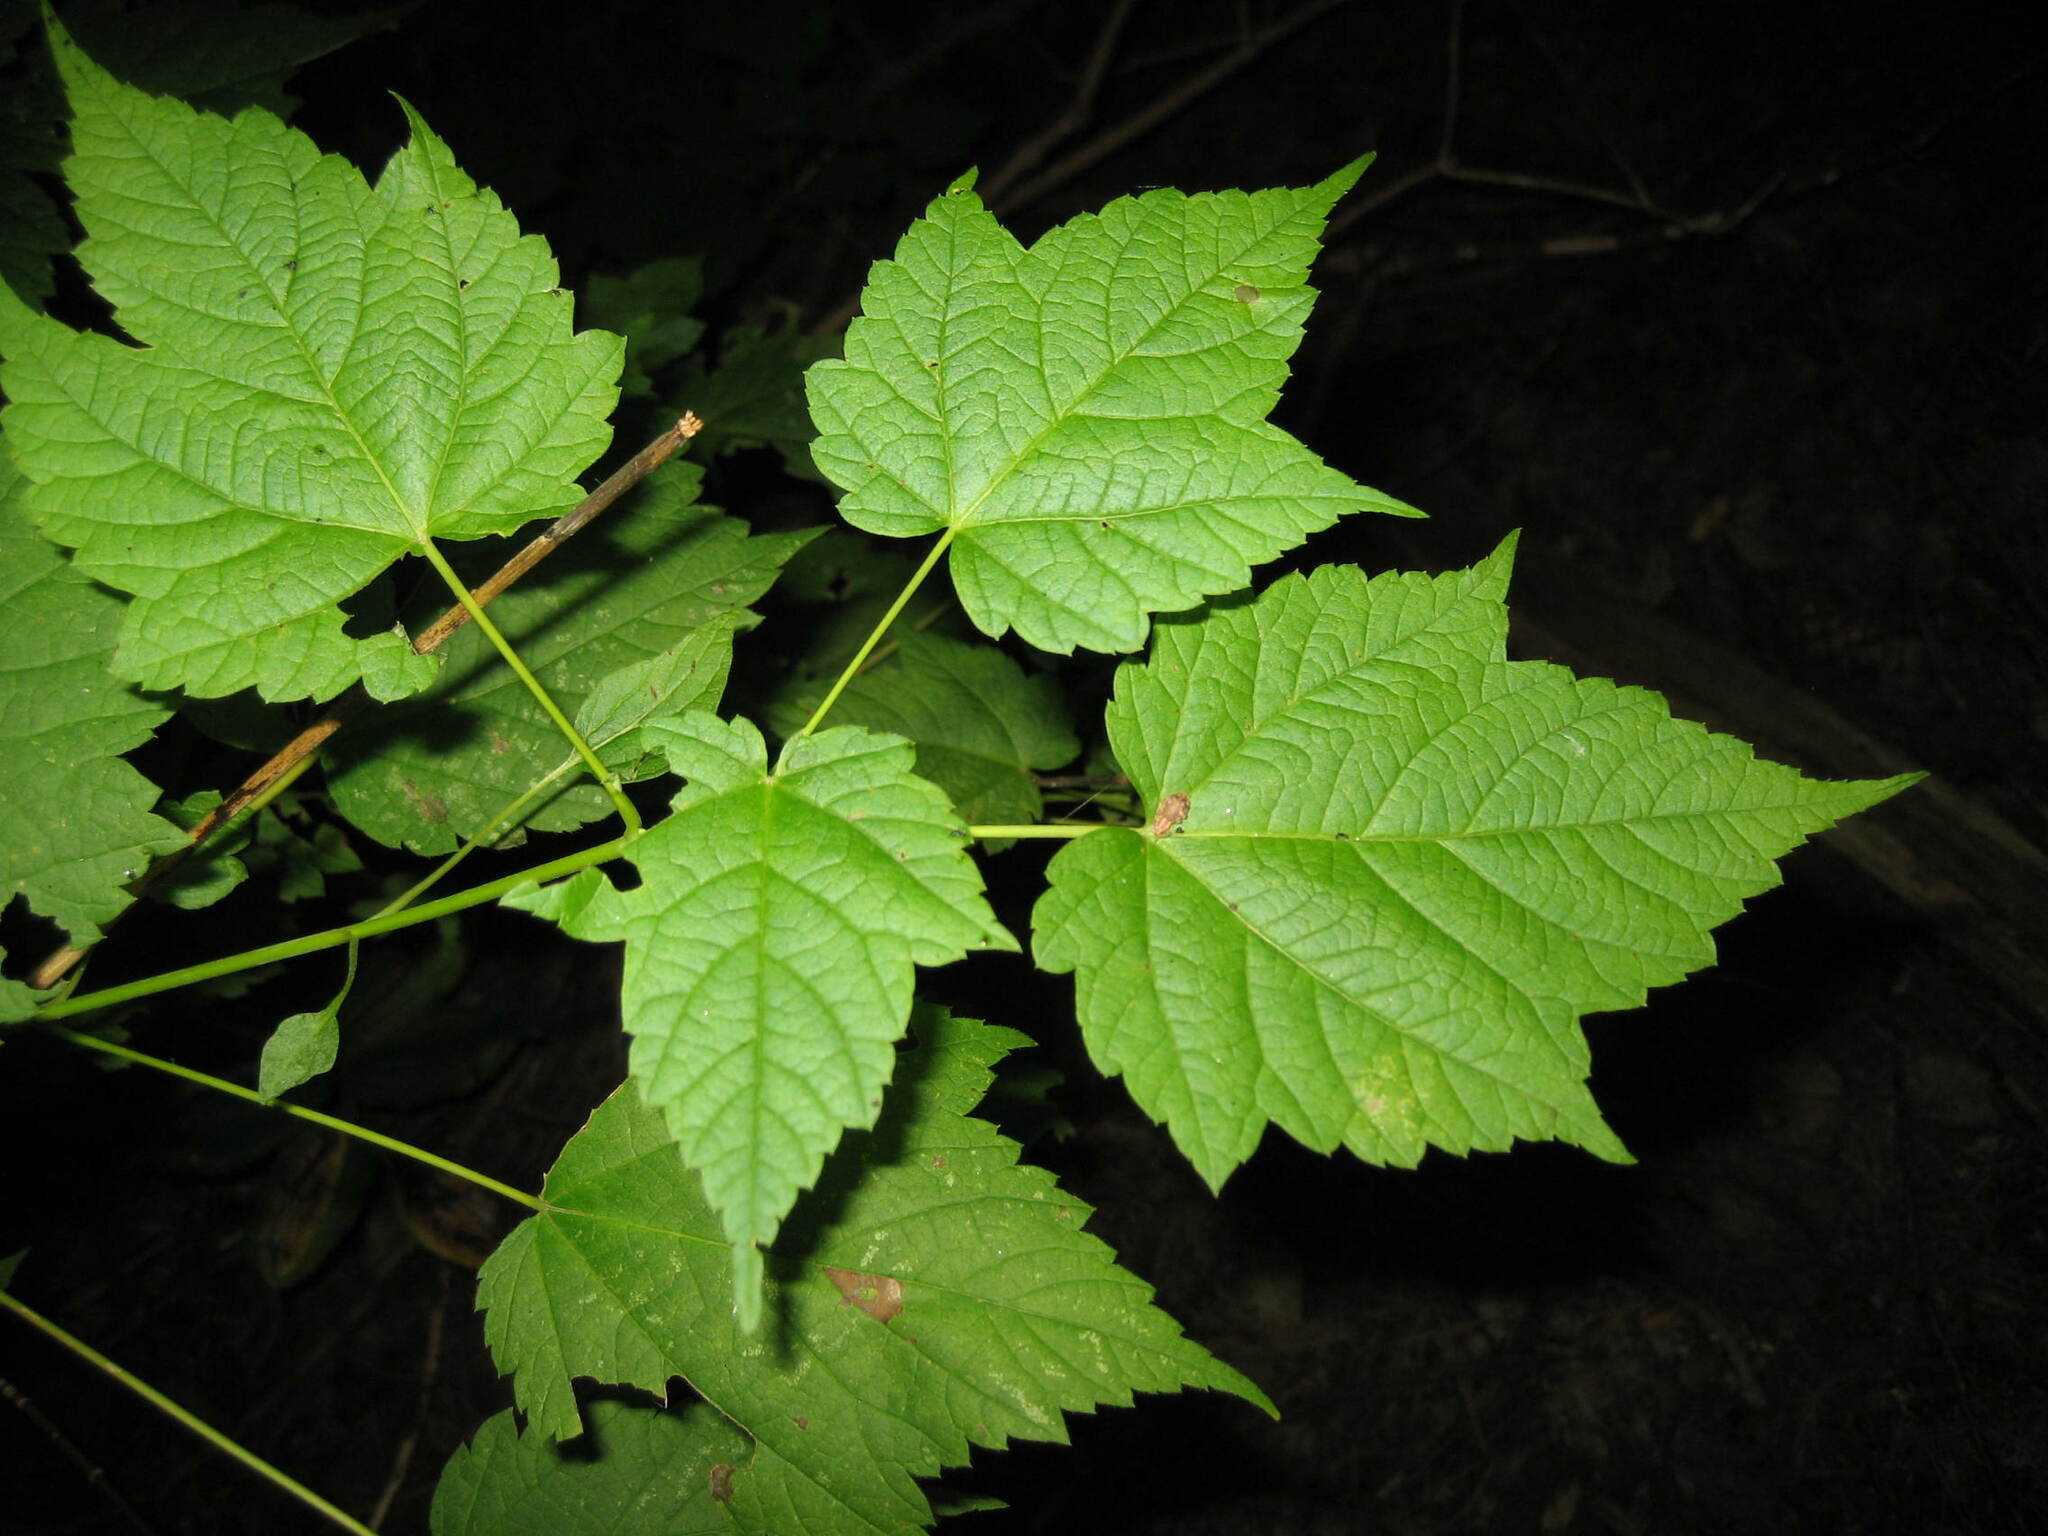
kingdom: Plantae
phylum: Tracheophyta
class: Magnoliopsida
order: Sapindales
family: Sapindaceae
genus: Acer
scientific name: Acer spicatum
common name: Mountain maple
